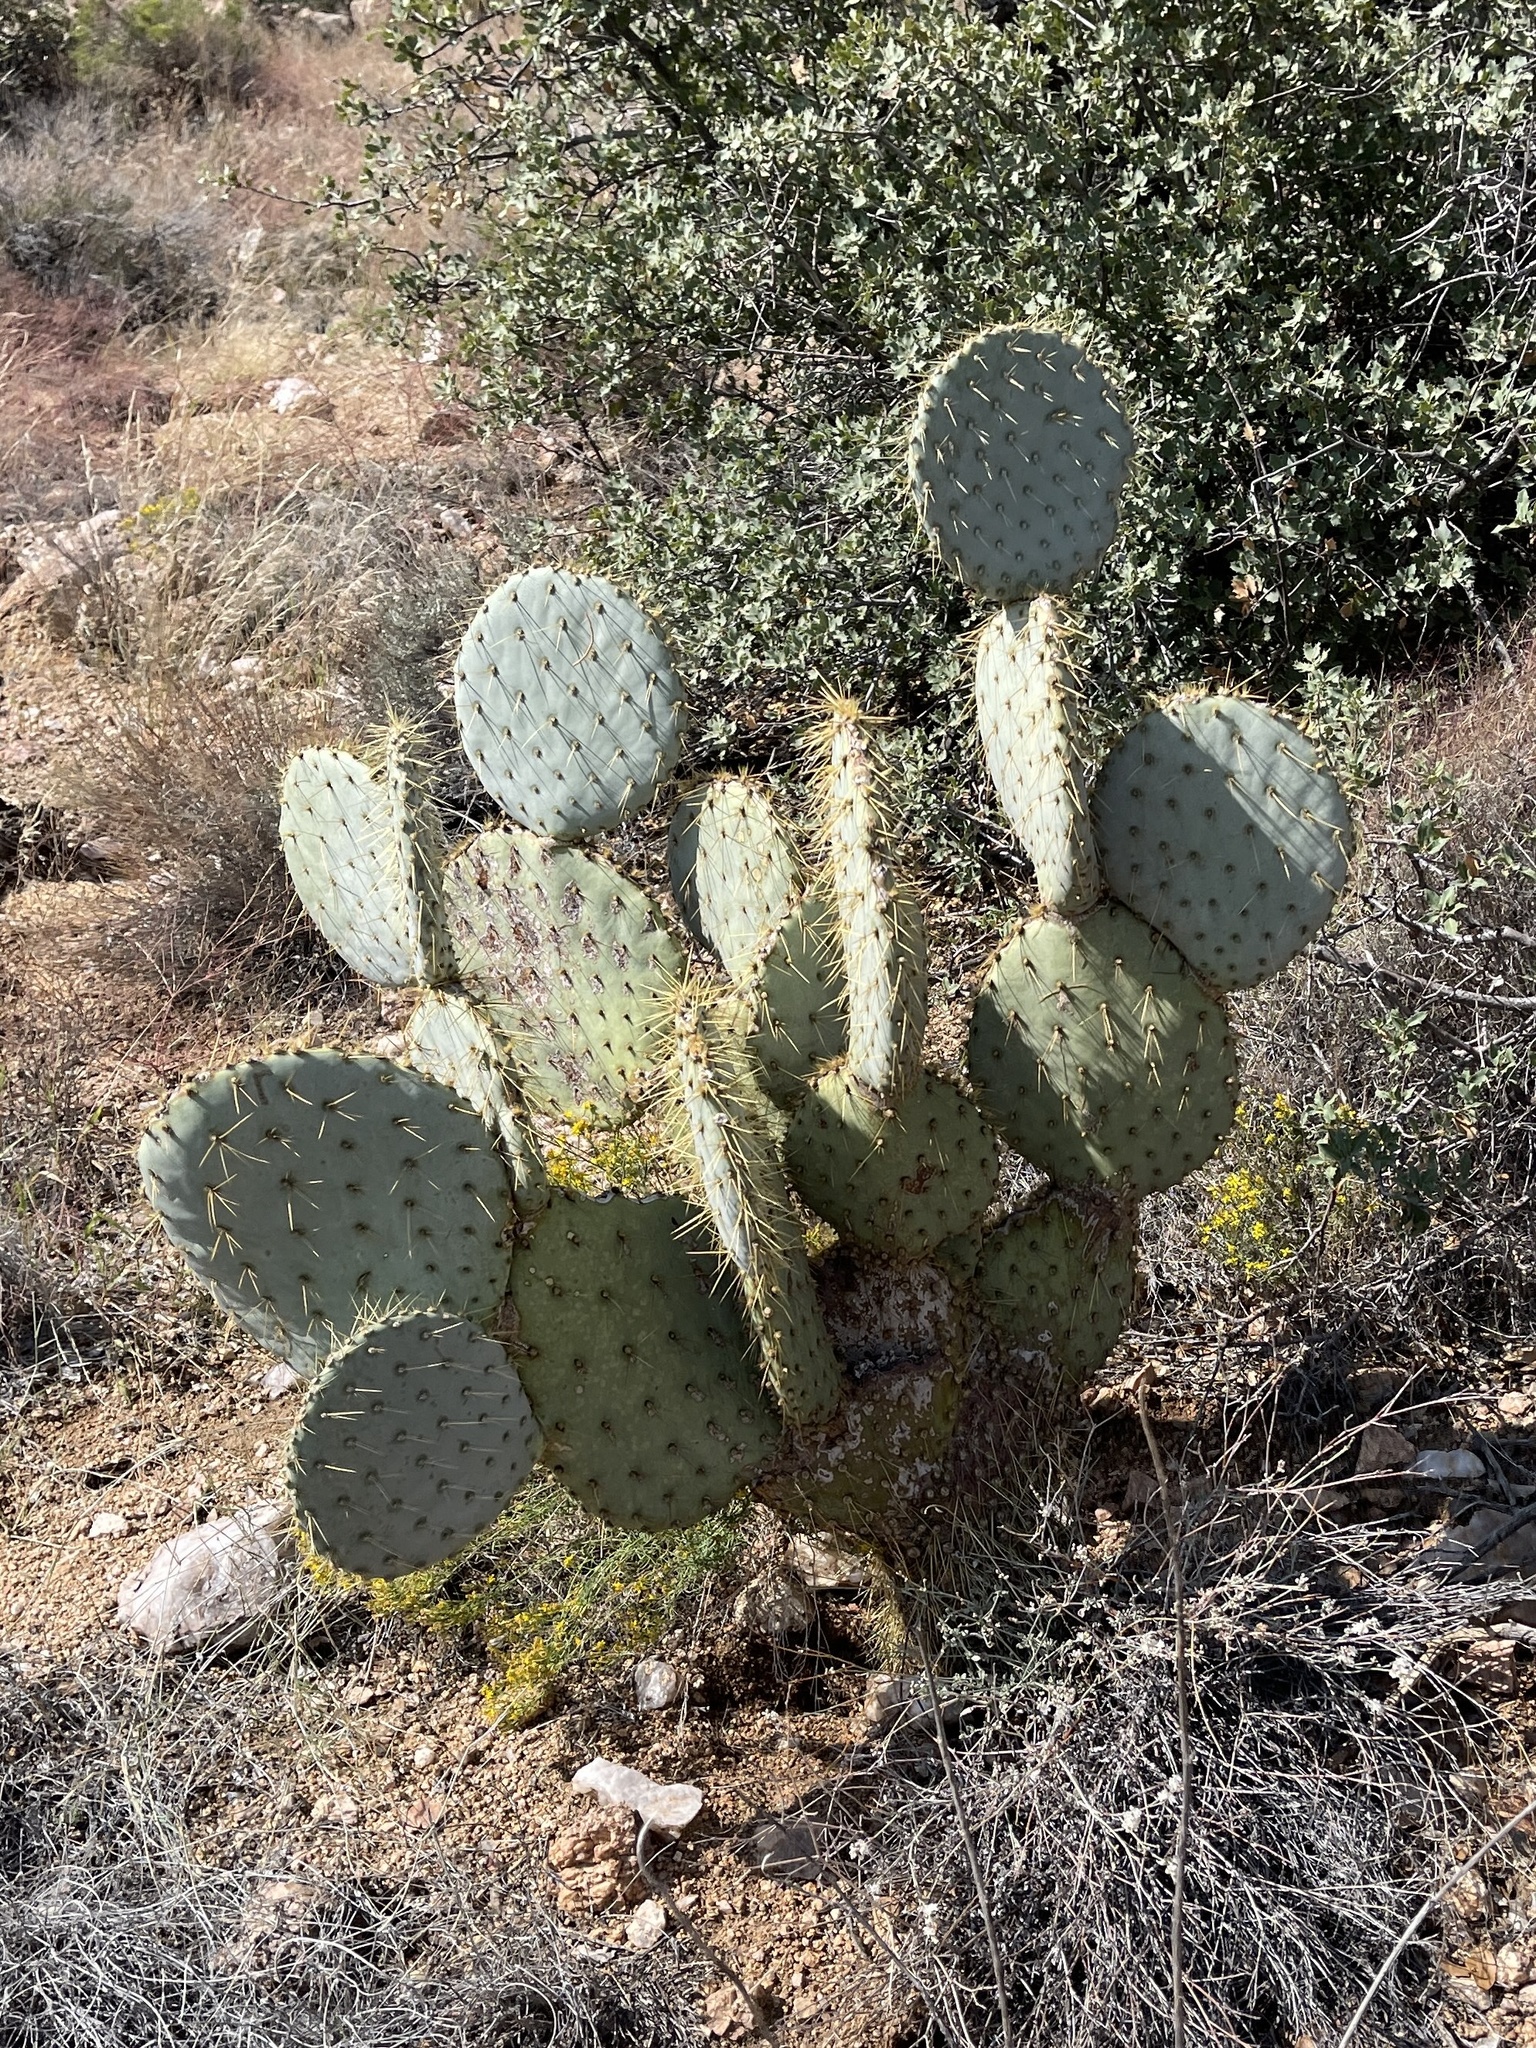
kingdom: Plantae
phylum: Tracheophyta
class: Magnoliopsida
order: Caryophyllales
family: Cactaceae
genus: Opuntia
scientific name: Opuntia chlorotica
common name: Dollar-joint prickly-pear
